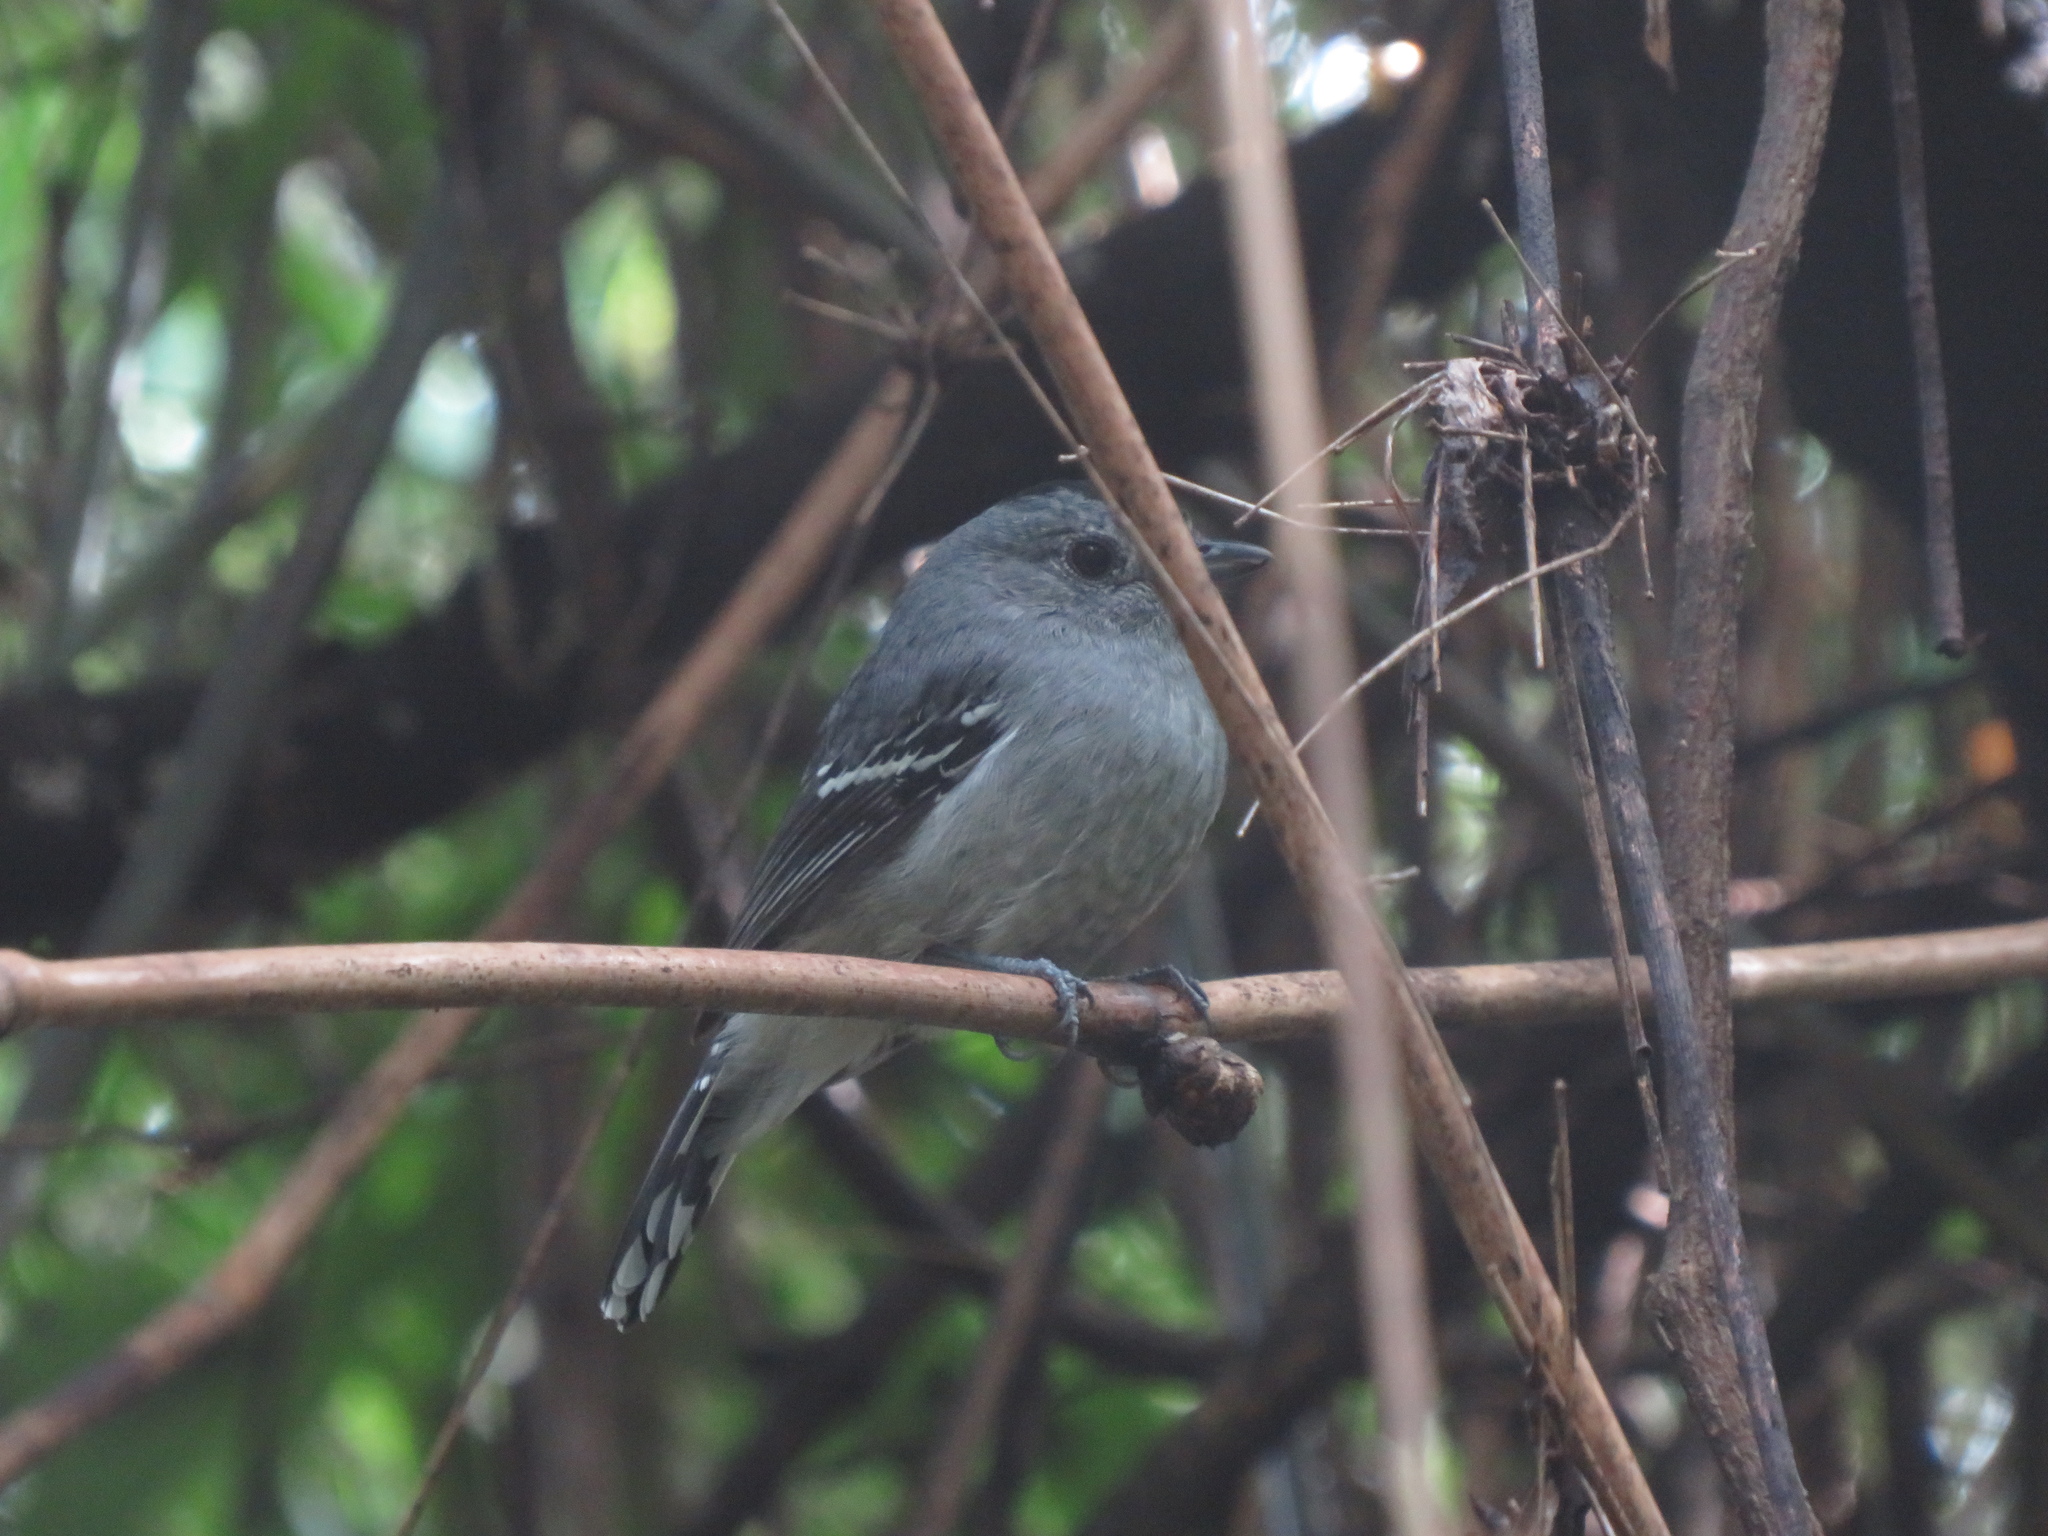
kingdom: Animalia
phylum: Chordata
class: Aves
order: Passeriformes
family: Thamnophilidae
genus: Thamnophilus
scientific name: Thamnophilus caerulescens
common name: Variable antshrike
